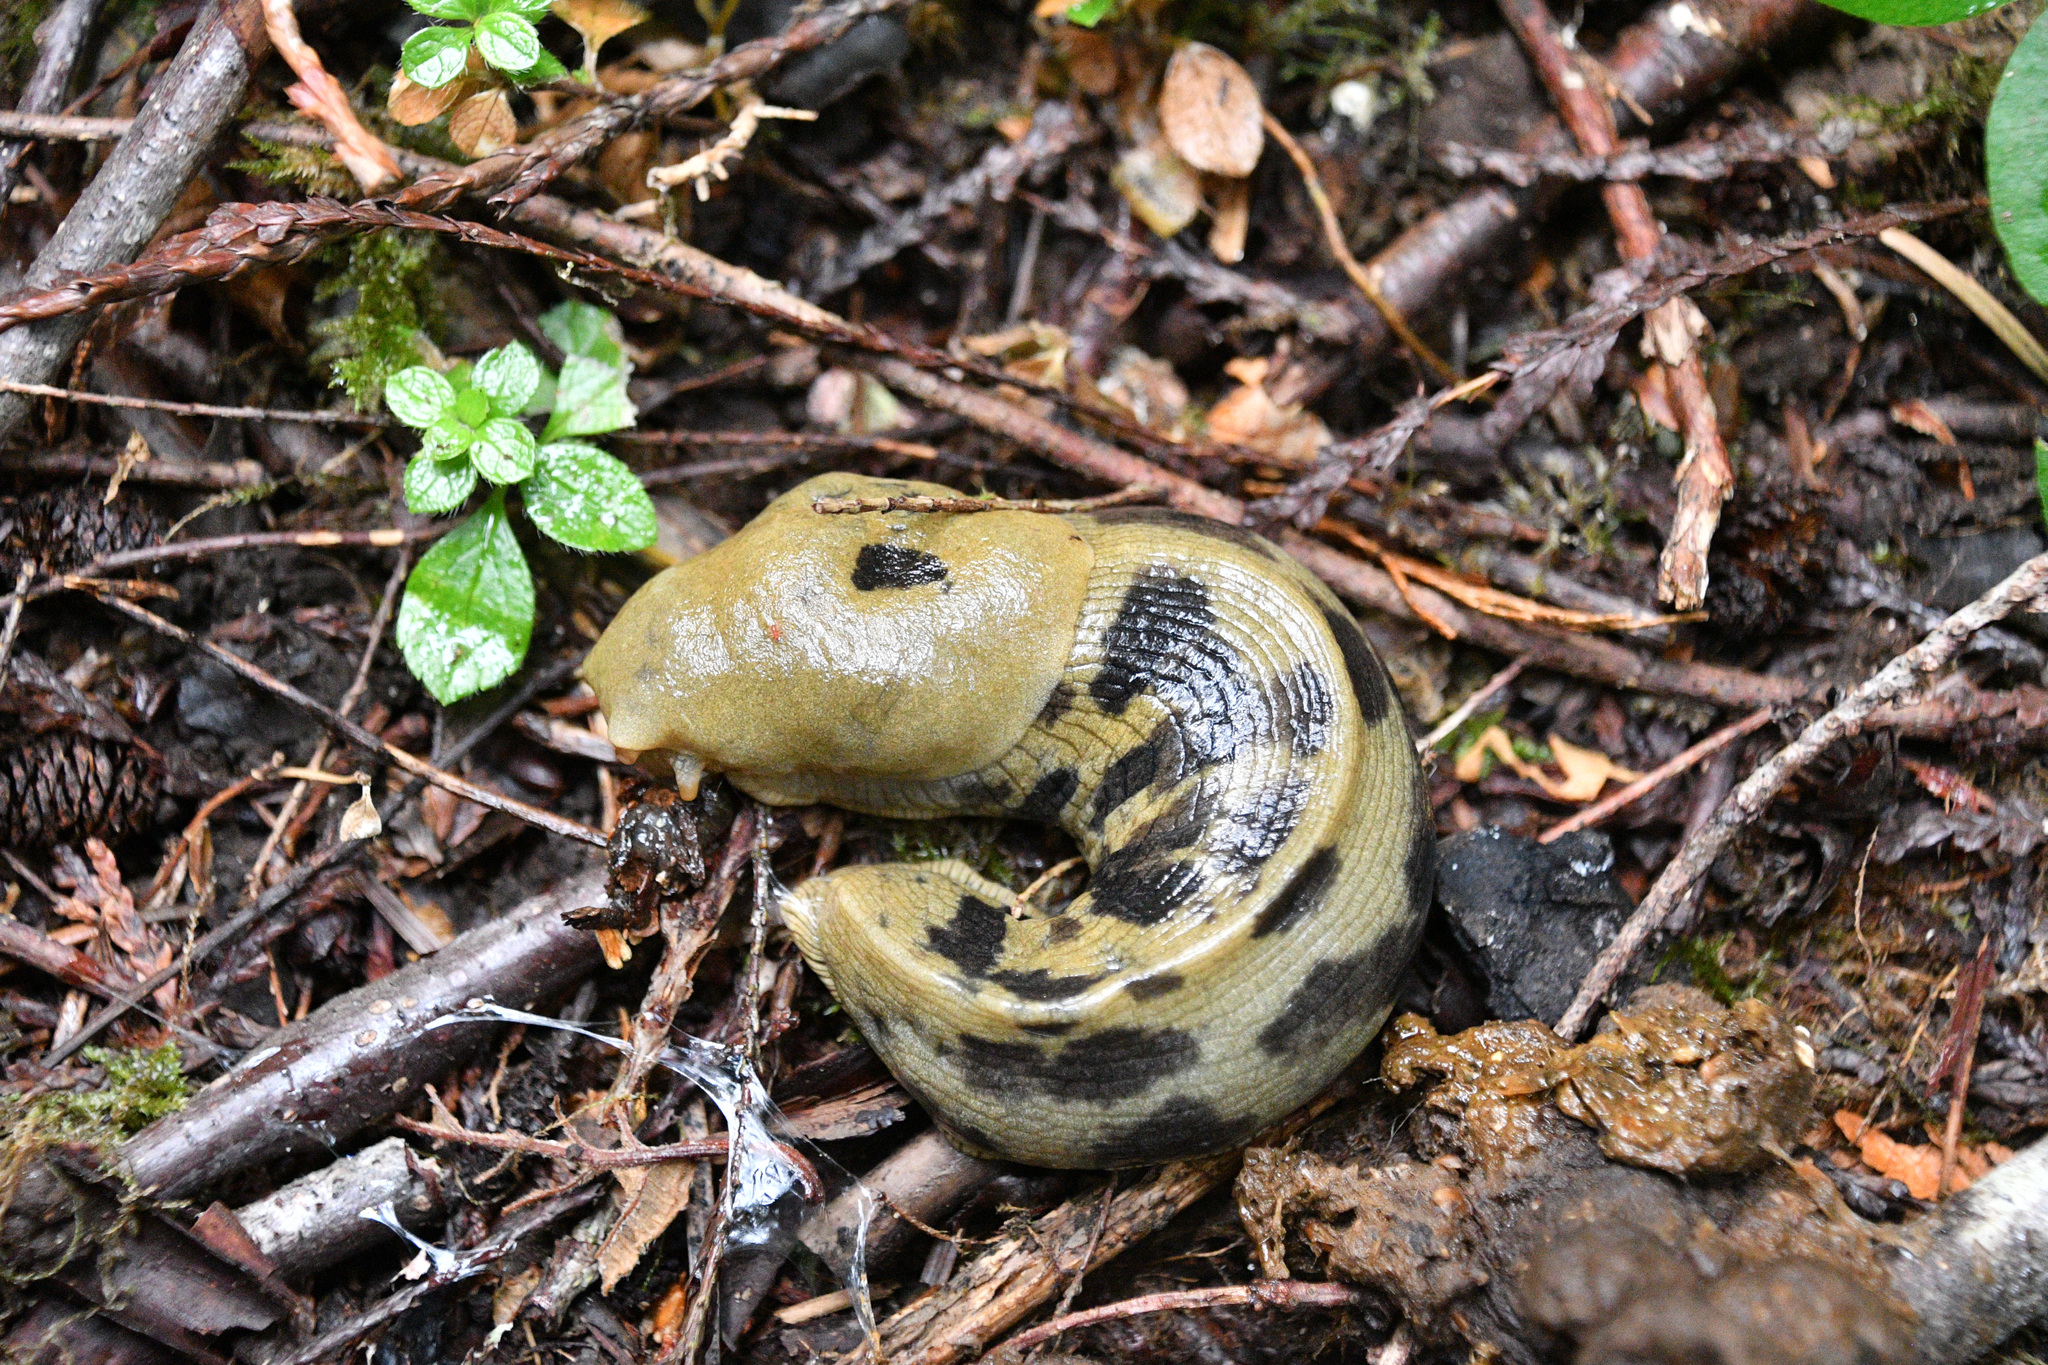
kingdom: Animalia
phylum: Mollusca
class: Gastropoda
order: Stylommatophora
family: Ariolimacidae
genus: Ariolimax
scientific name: Ariolimax columbianus
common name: Pacific banana slug
